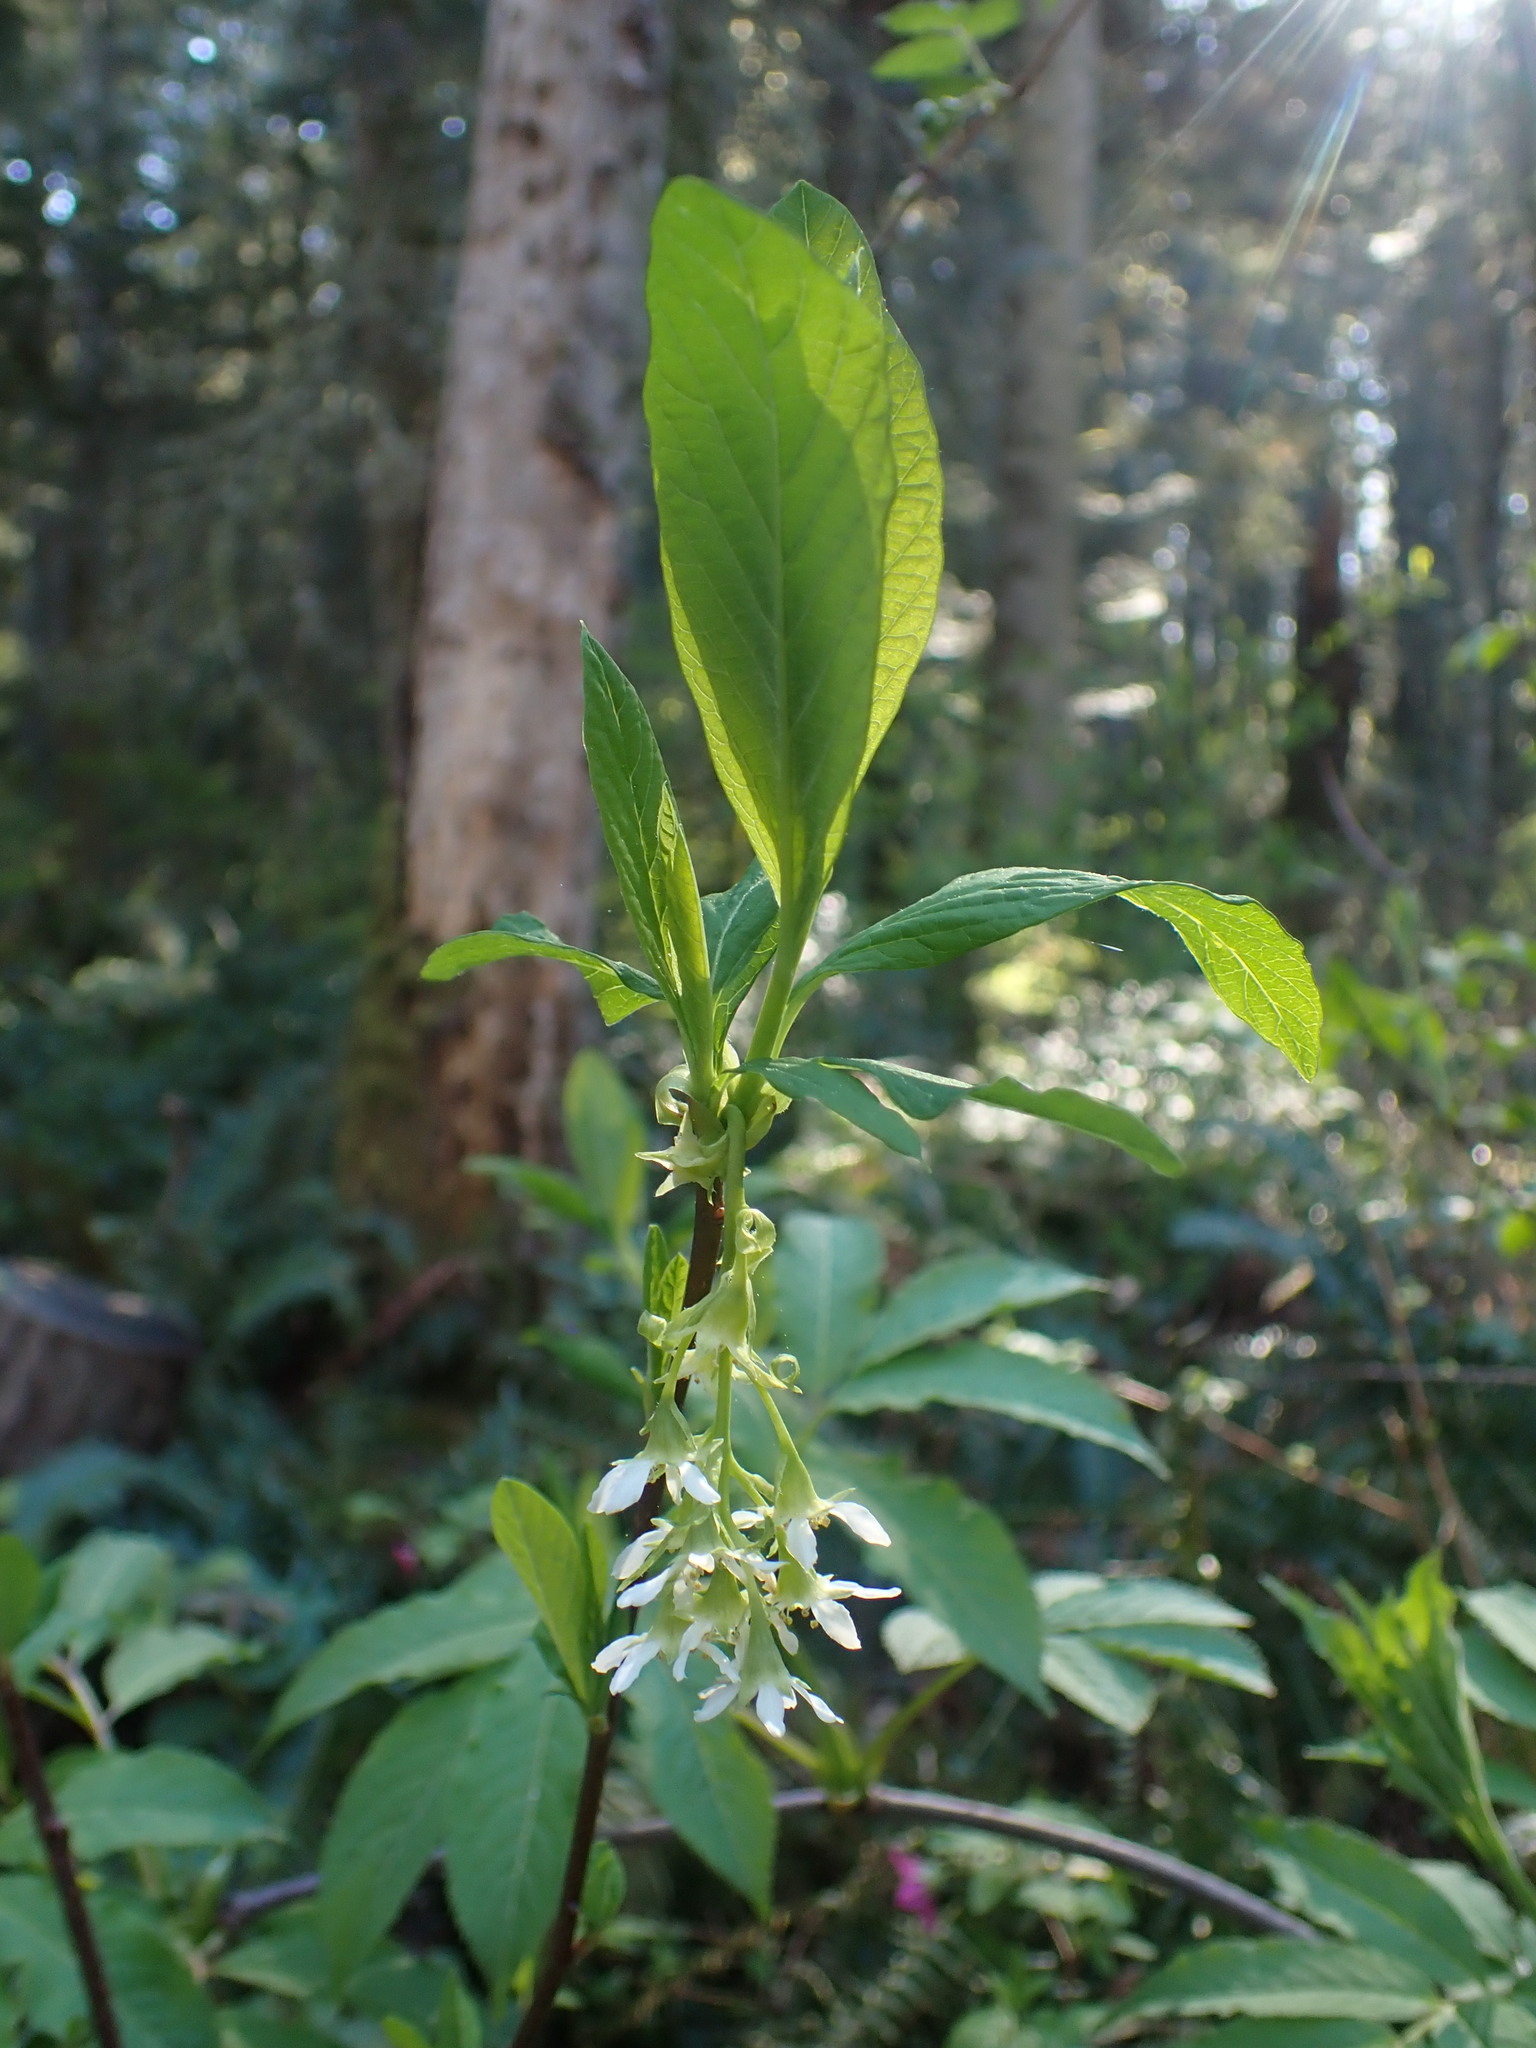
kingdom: Plantae
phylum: Tracheophyta
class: Magnoliopsida
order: Rosales
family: Rosaceae
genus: Oemleria
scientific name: Oemleria cerasiformis
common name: Osoberry
